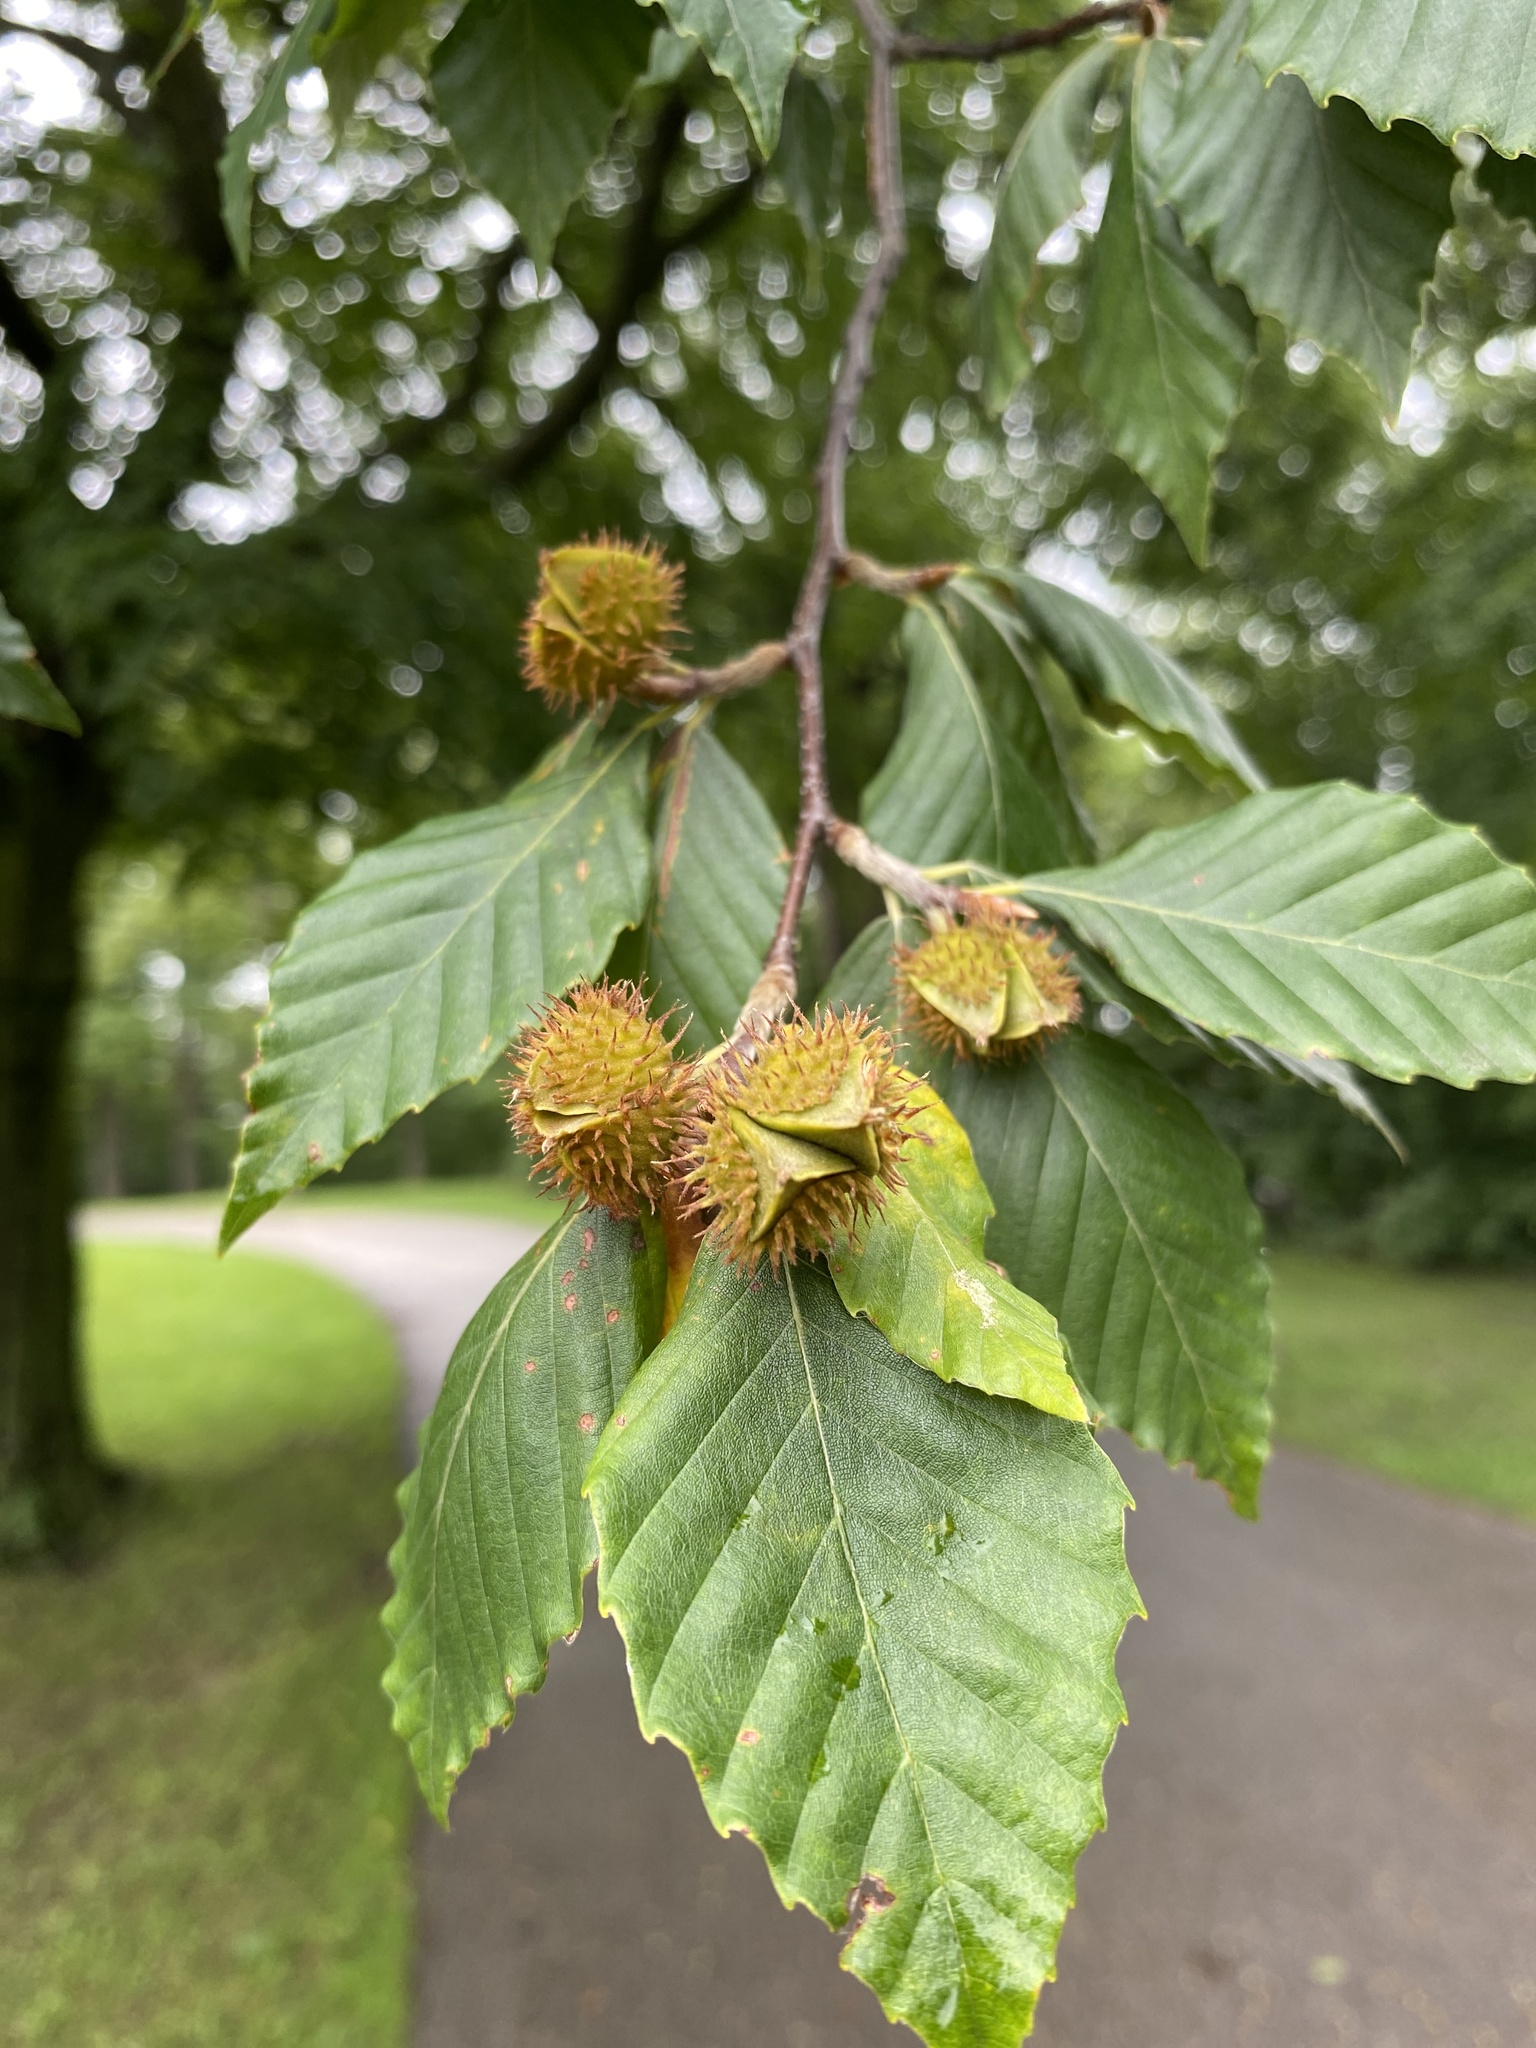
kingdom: Plantae
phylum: Tracheophyta
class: Magnoliopsida
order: Fagales
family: Fagaceae
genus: Fagus
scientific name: Fagus grandifolia
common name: American beech
